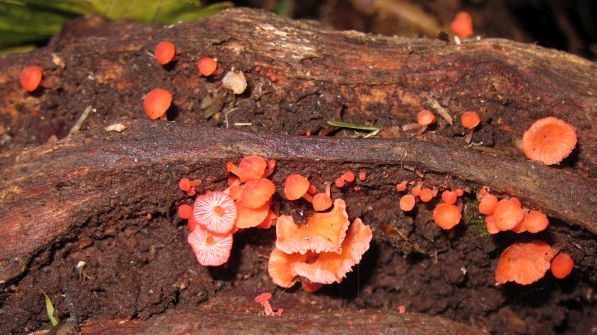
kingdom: Fungi
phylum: Basidiomycota
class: Agaricomycetes
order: Agaricales
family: Tricholomataceae
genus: Omphalina
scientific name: Omphalina wellingtonensis
